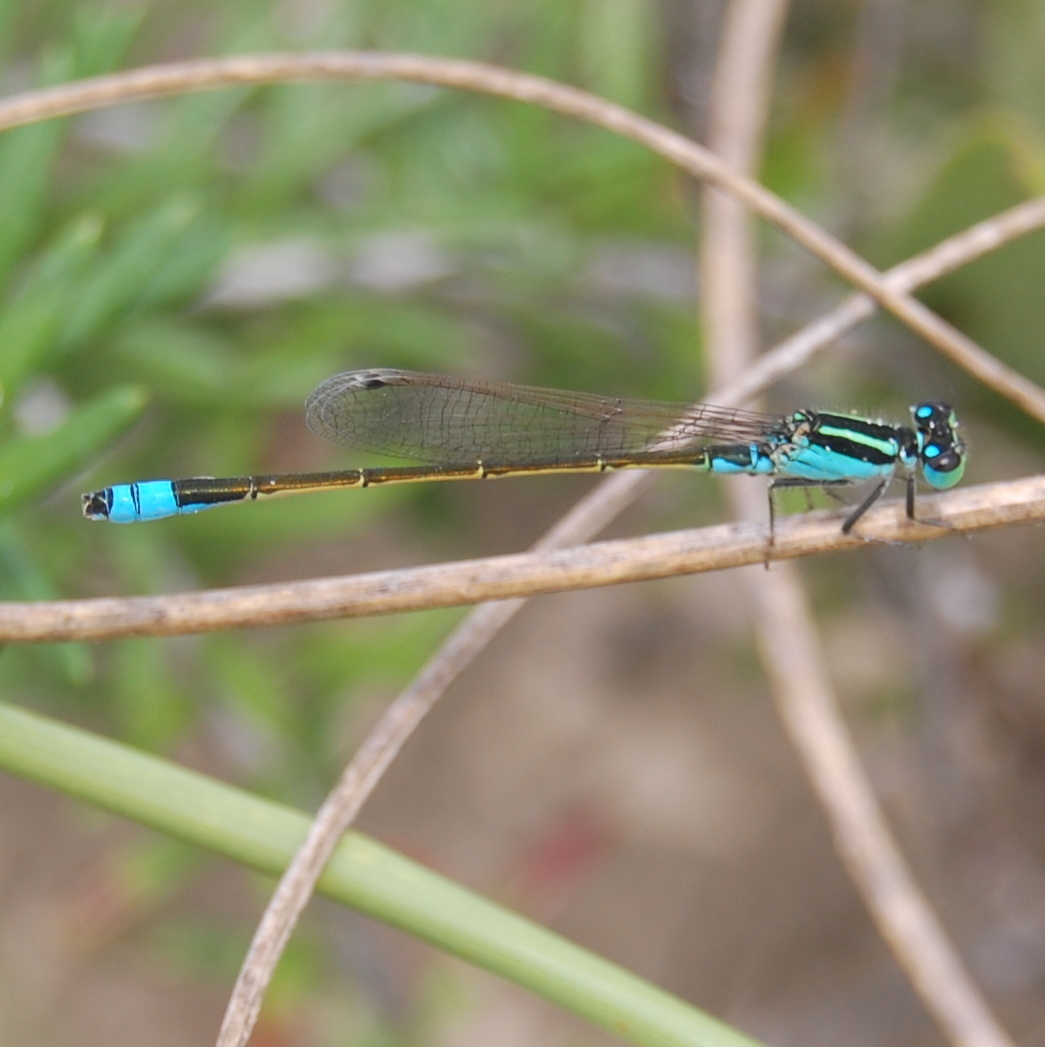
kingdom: Animalia
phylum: Arthropoda
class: Insecta
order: Odonata
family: Coenagrionidae
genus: Ischnura
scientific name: Ischnura fluviatilis
